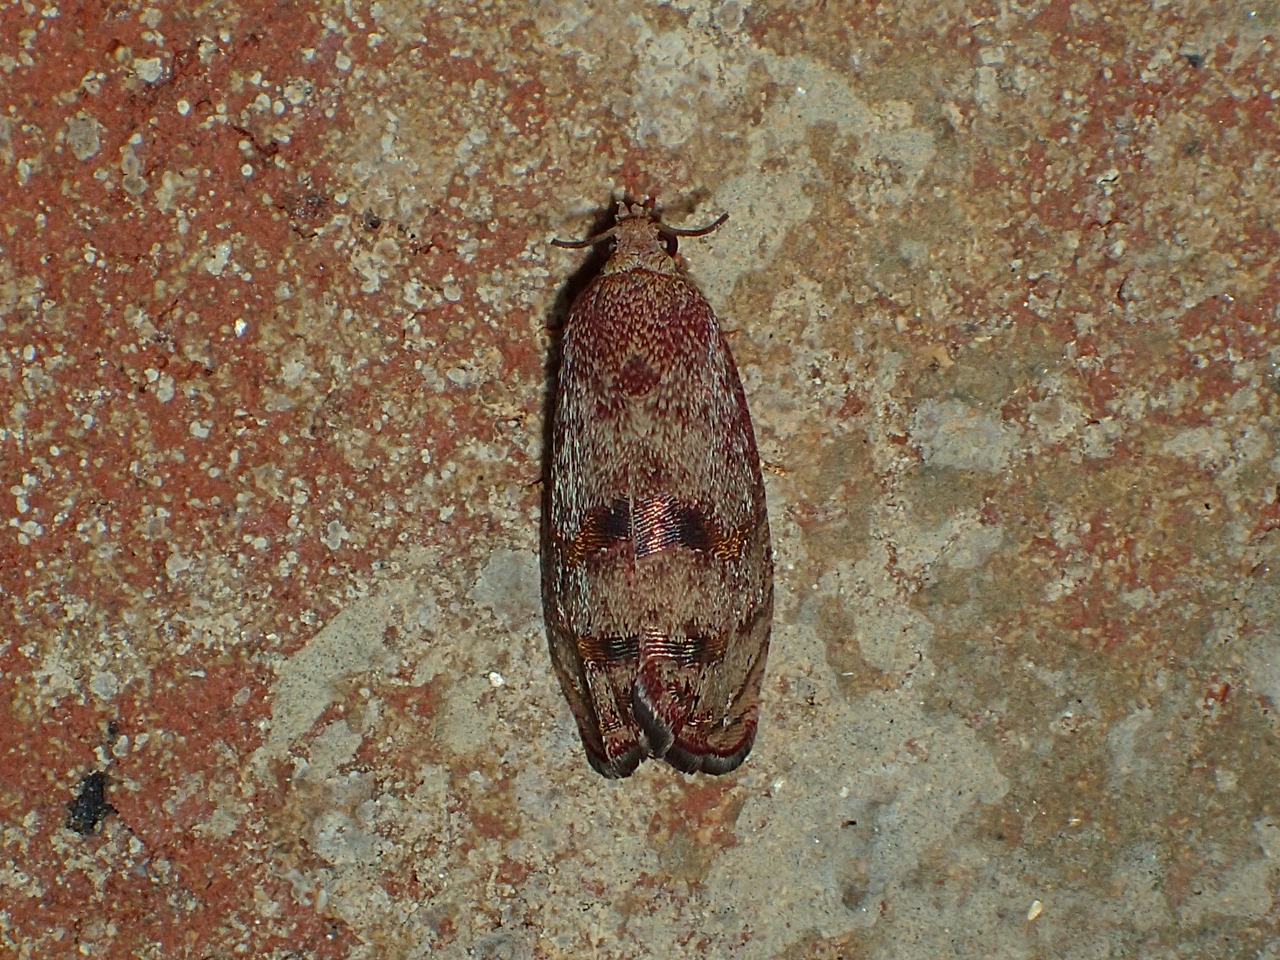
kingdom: Animalia
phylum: Arthropoda
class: Insecta
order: Lepidoptera
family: Tortricidae
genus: Cydia
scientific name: Cydia latiferreana
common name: Filbertworm moth
